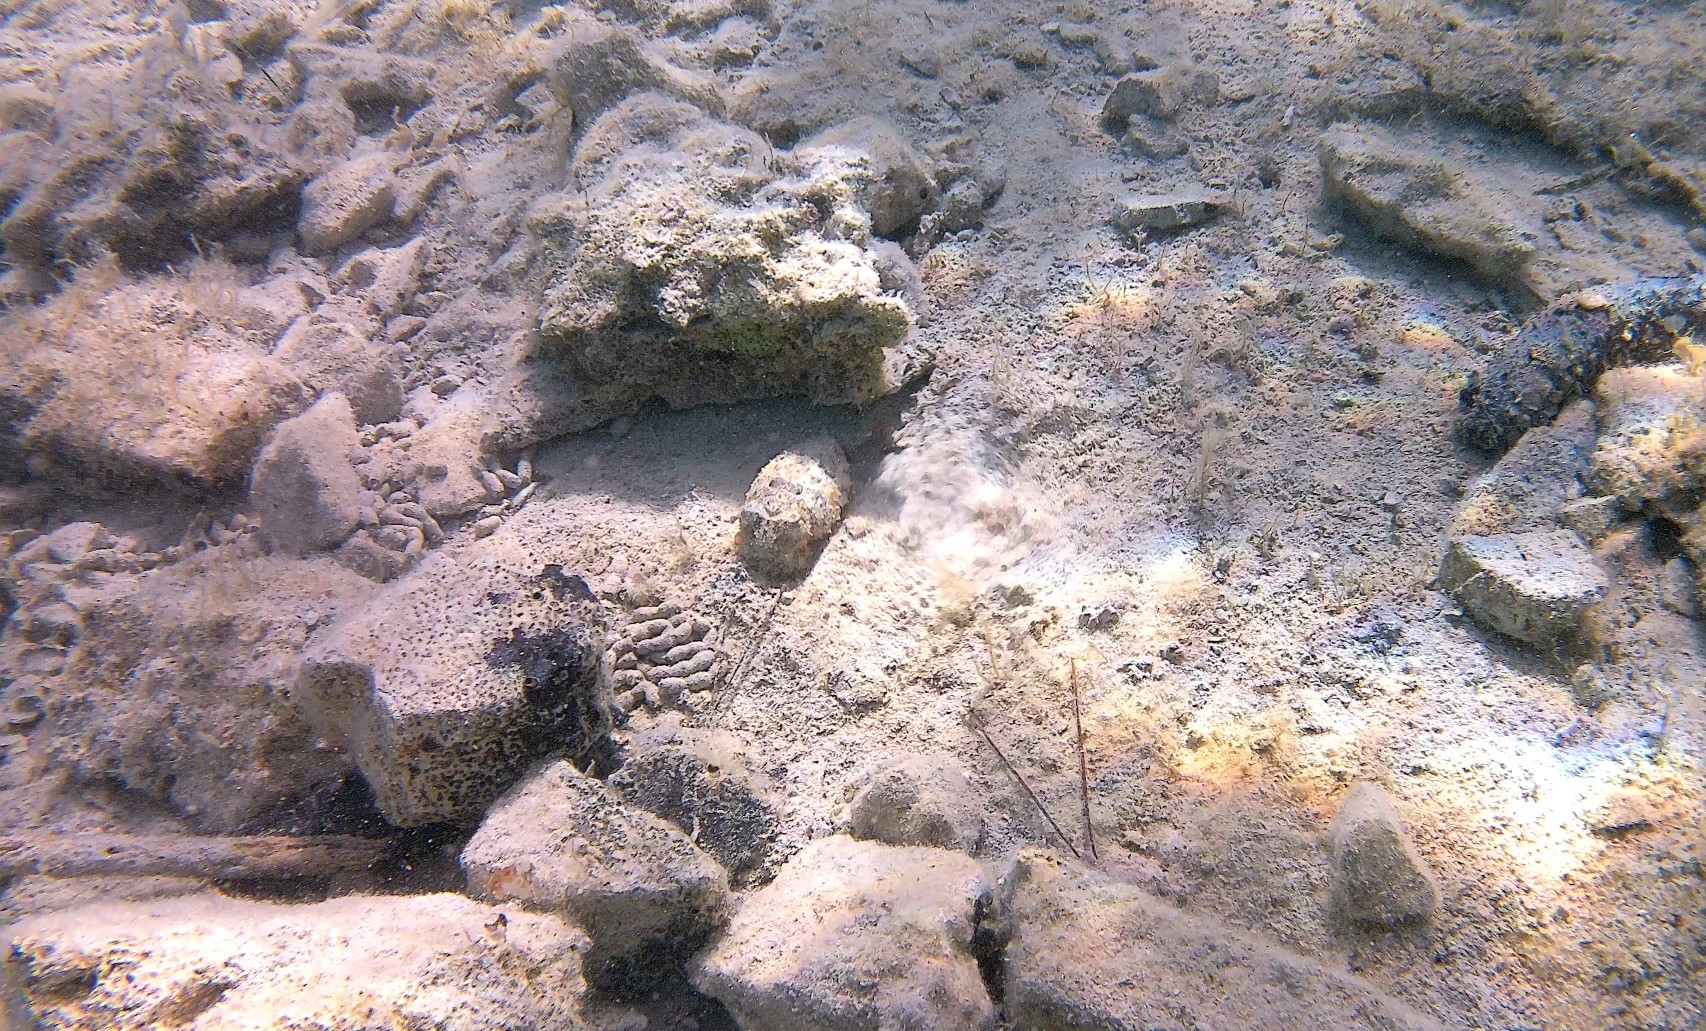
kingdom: Animalia
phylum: Mollusca
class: Cephalopoda
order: Sepiida
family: Sepiidae
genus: Sepia
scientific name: Sepia officinalis
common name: Common cuttlefish
